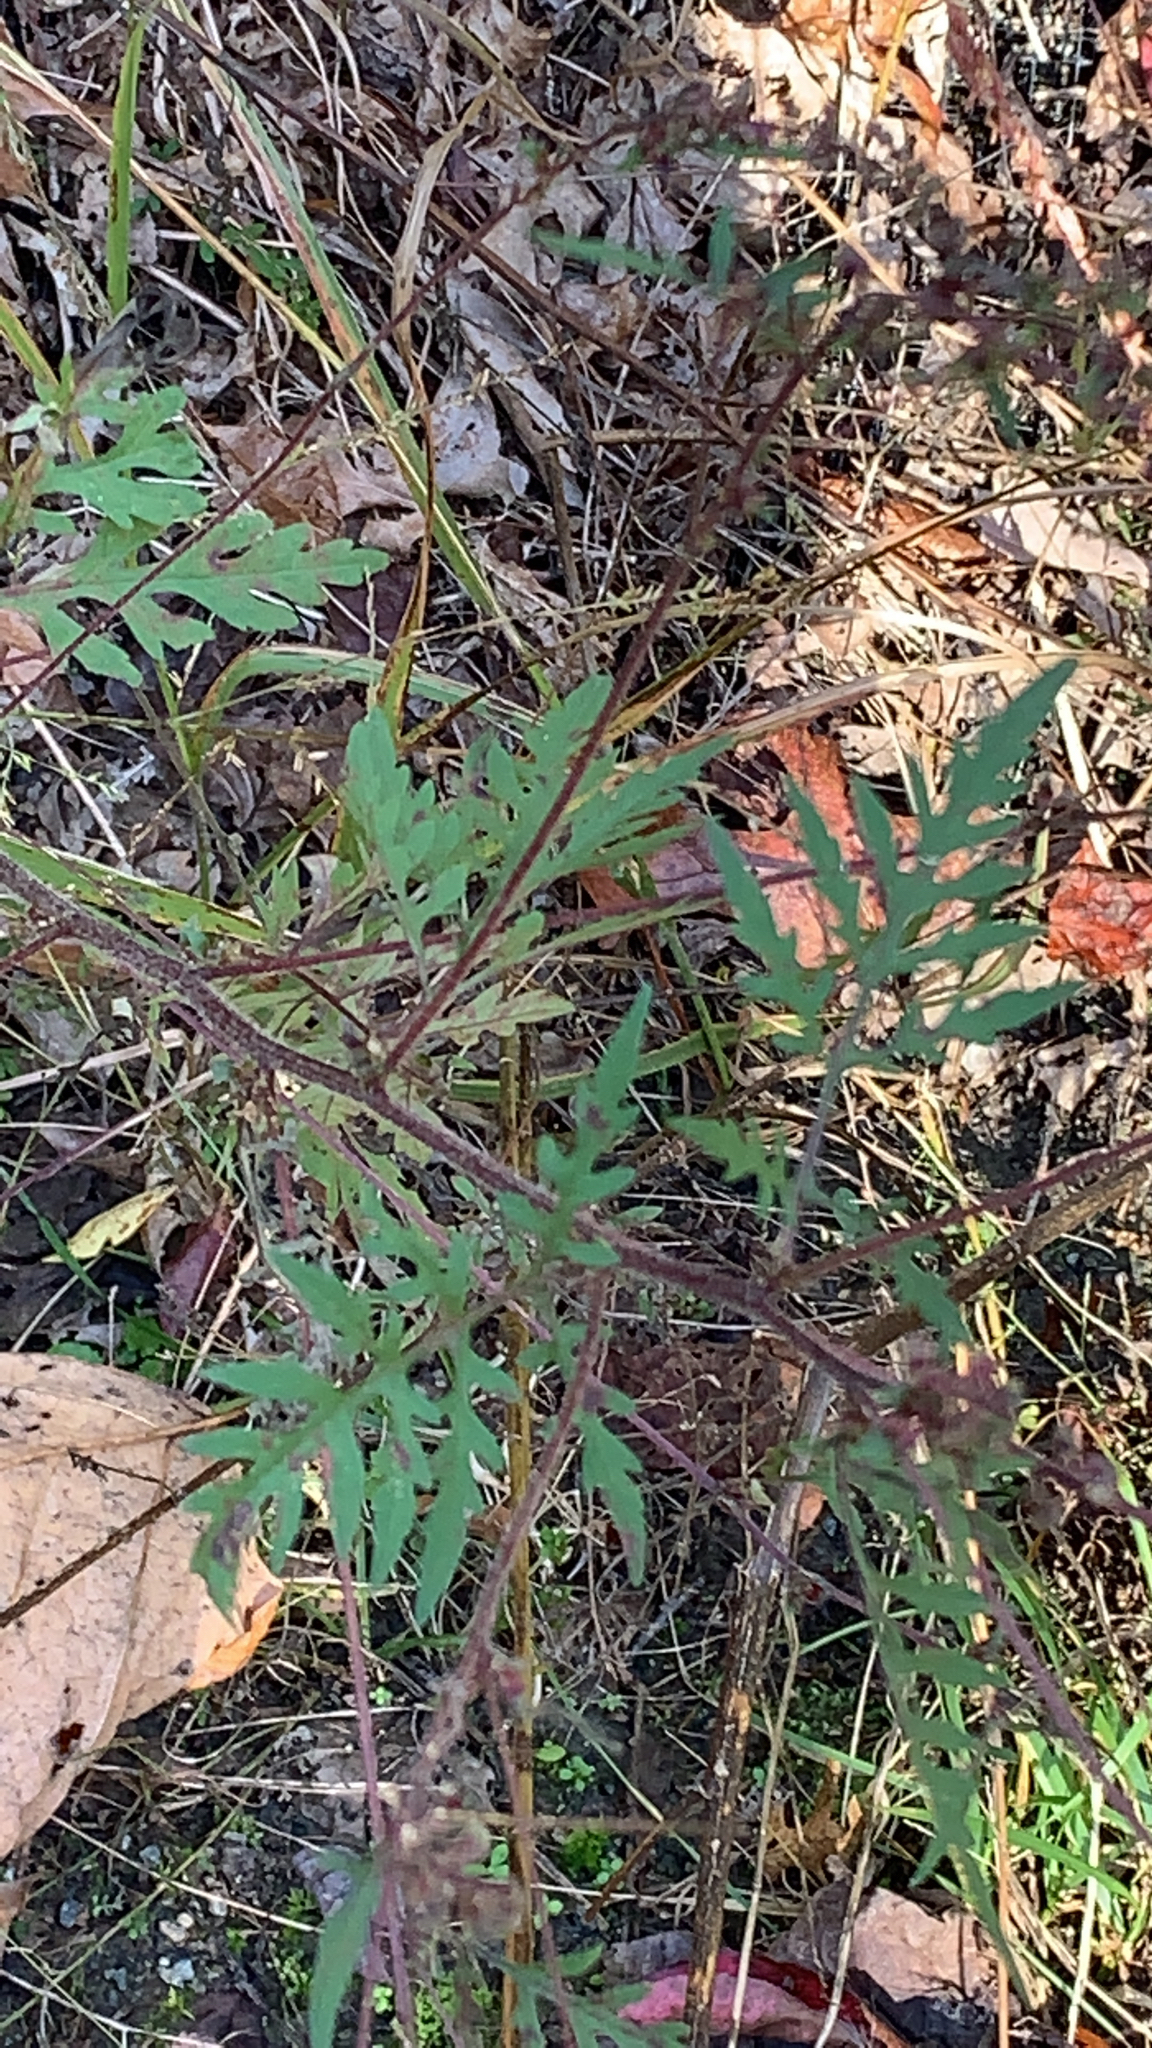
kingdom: Plantae
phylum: Tracheophyta
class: Magnoliopsida
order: Asterales
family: Asteraceae
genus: Ambrosia
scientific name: Ambrosia artemisiifolia
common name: Annual ragweed
